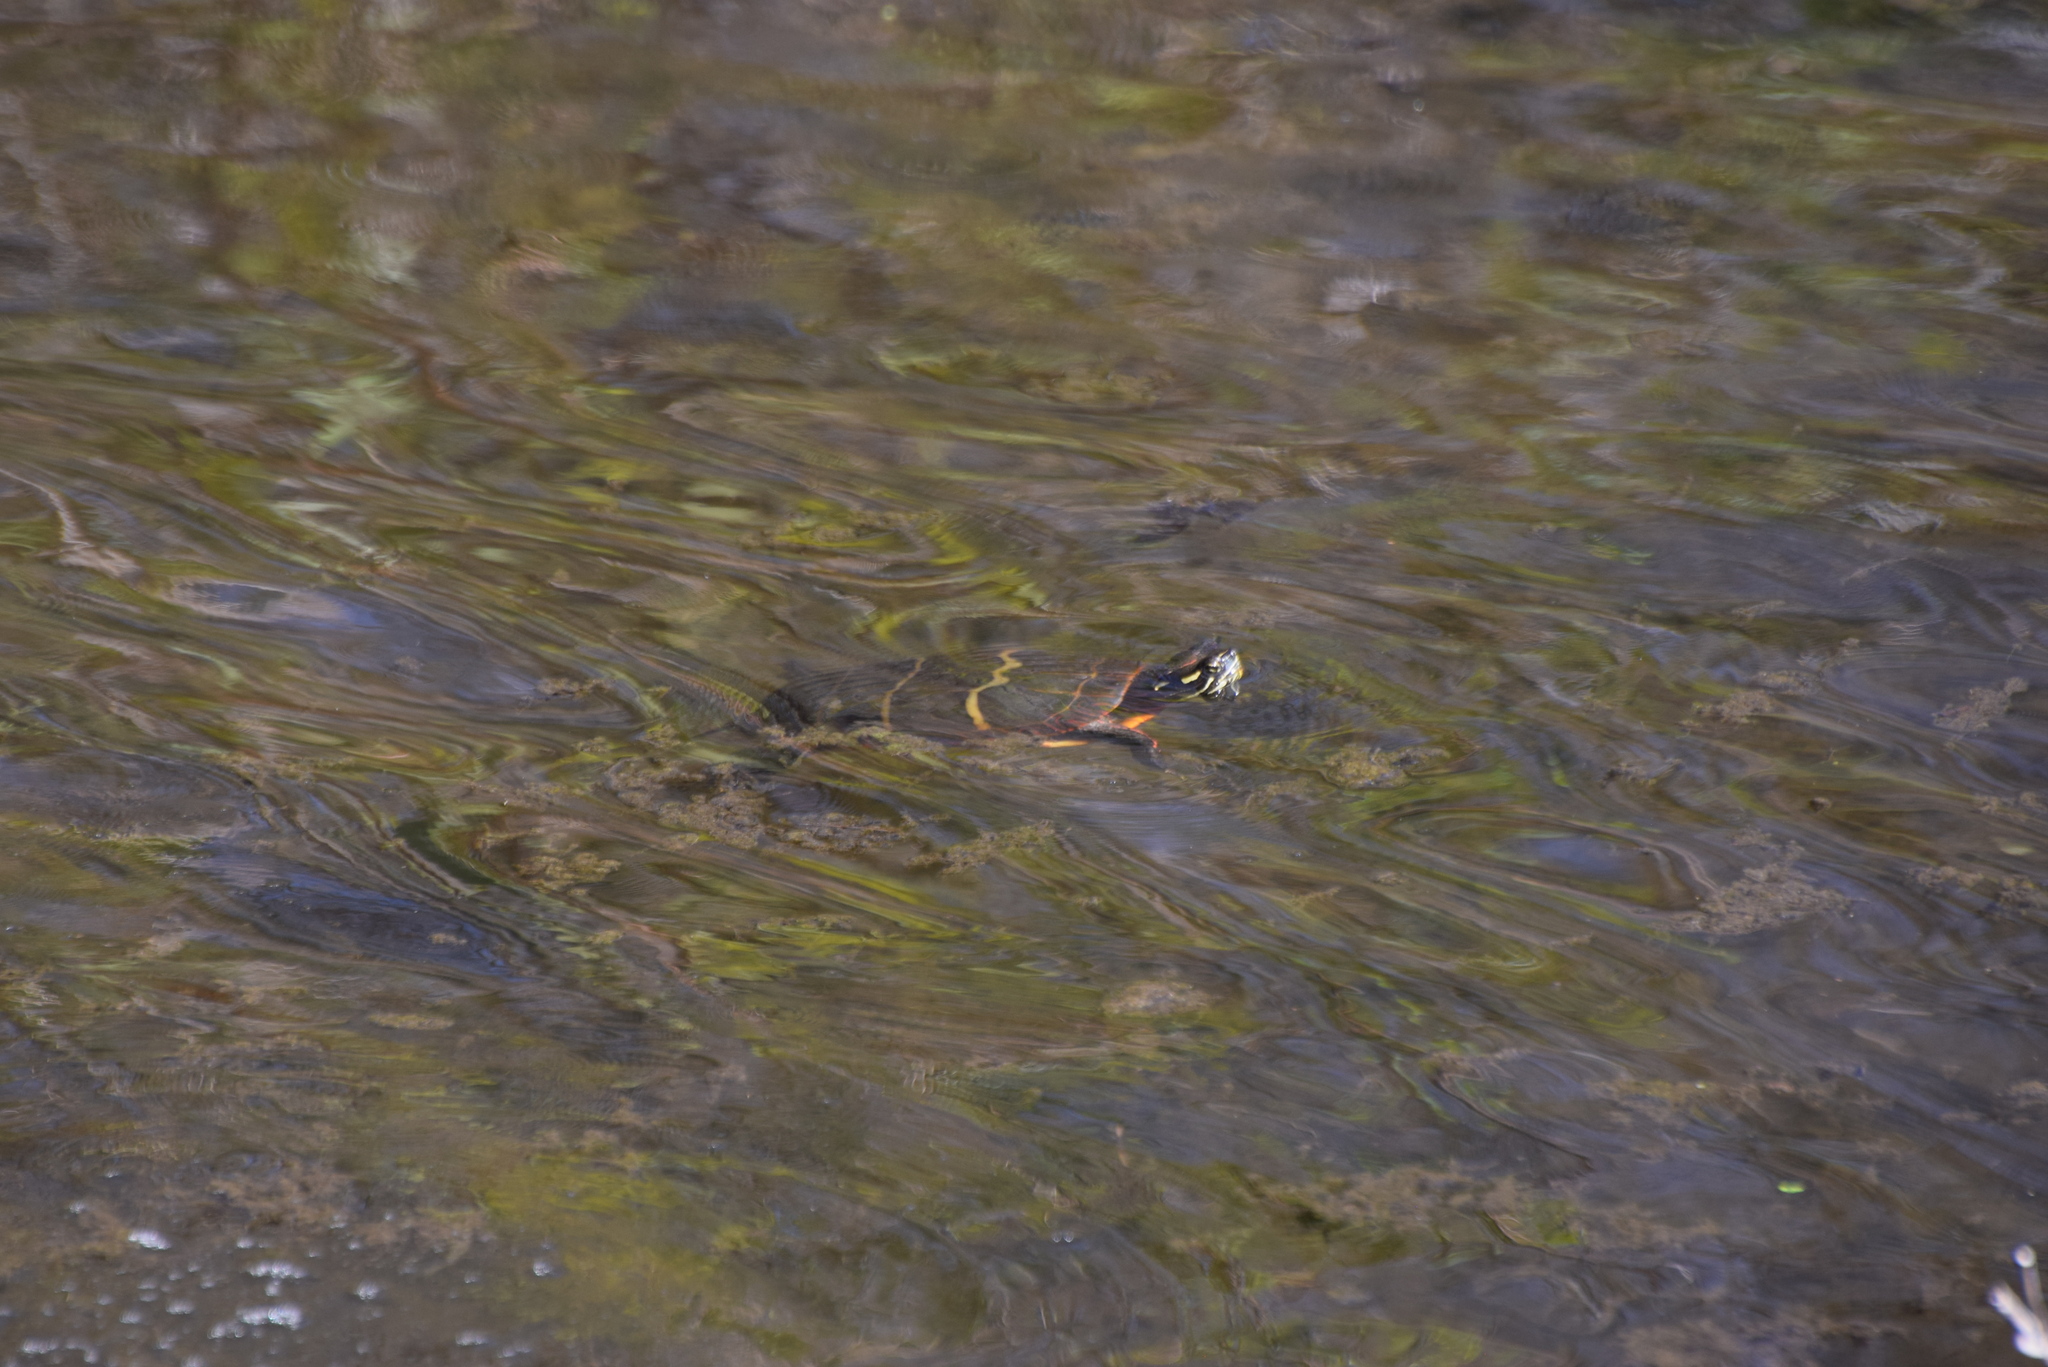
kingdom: Animalia
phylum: Chordata
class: Testudines
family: Emydidae
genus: Chrysemys
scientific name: Chrysemys picta
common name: Painted turtle
